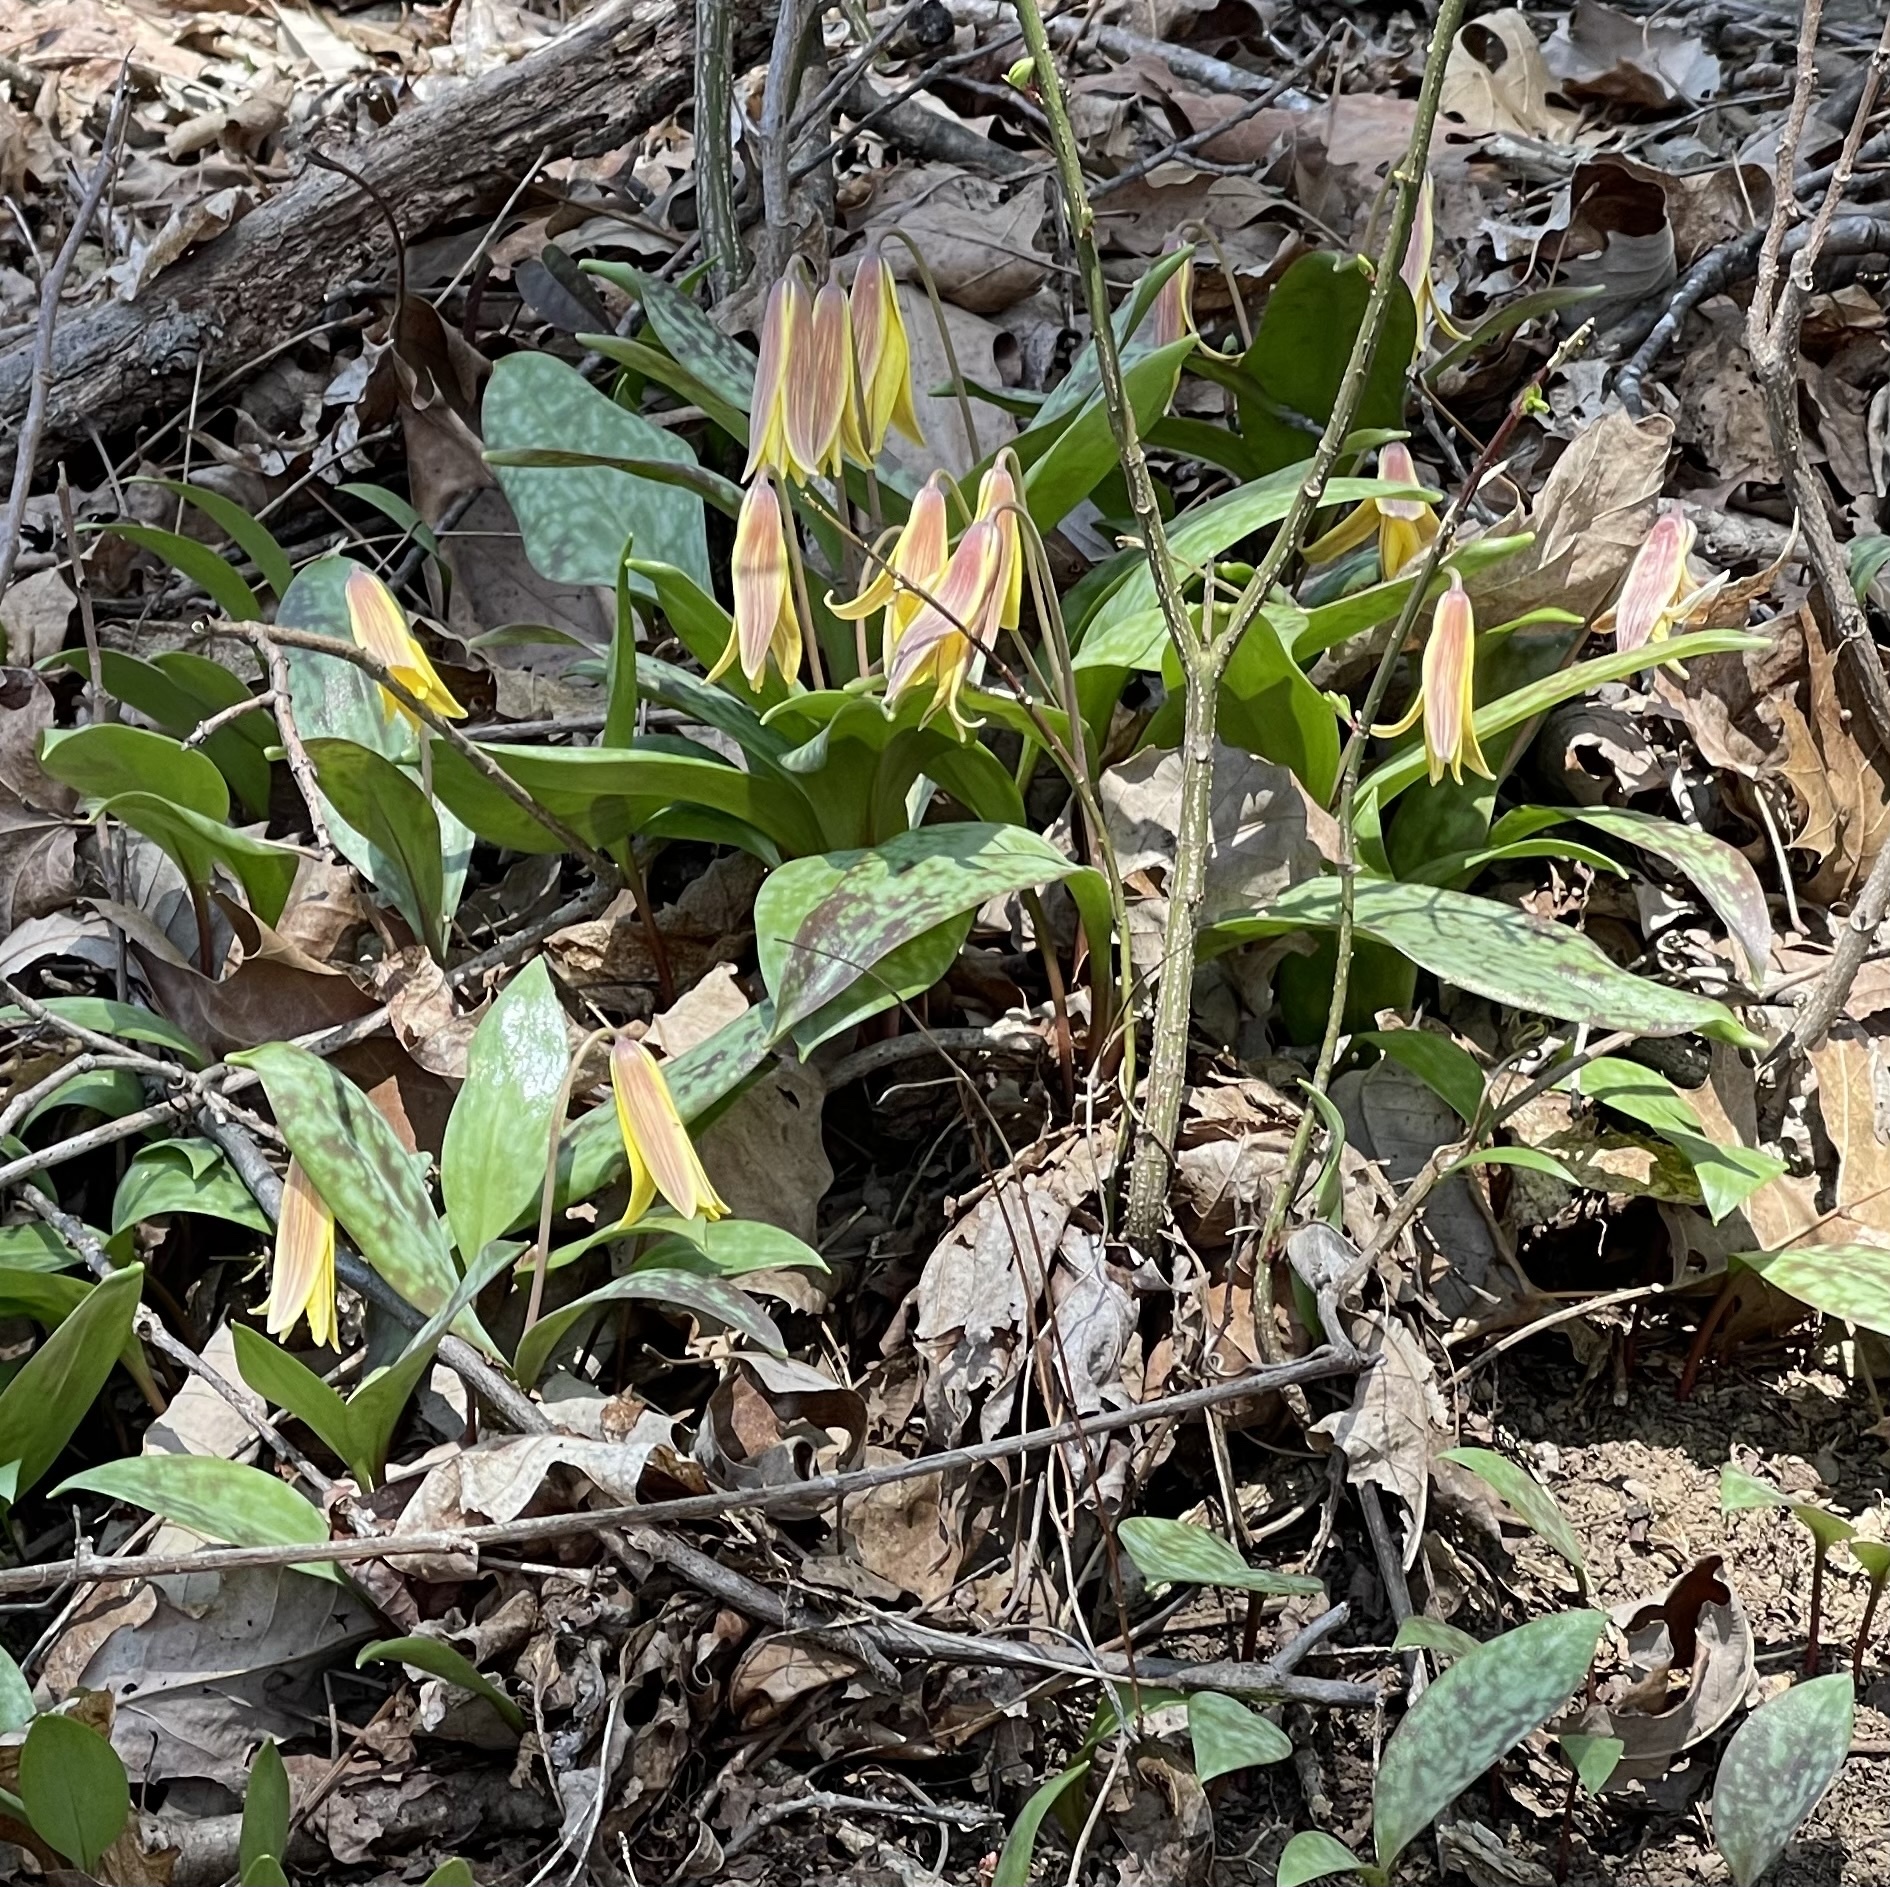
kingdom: Plantae
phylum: Tracheophyta
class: Liliopsida
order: Liliales
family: Liliaceae
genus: Erythronium
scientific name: Erythronium americanum
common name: Yellow adder's-tongue
